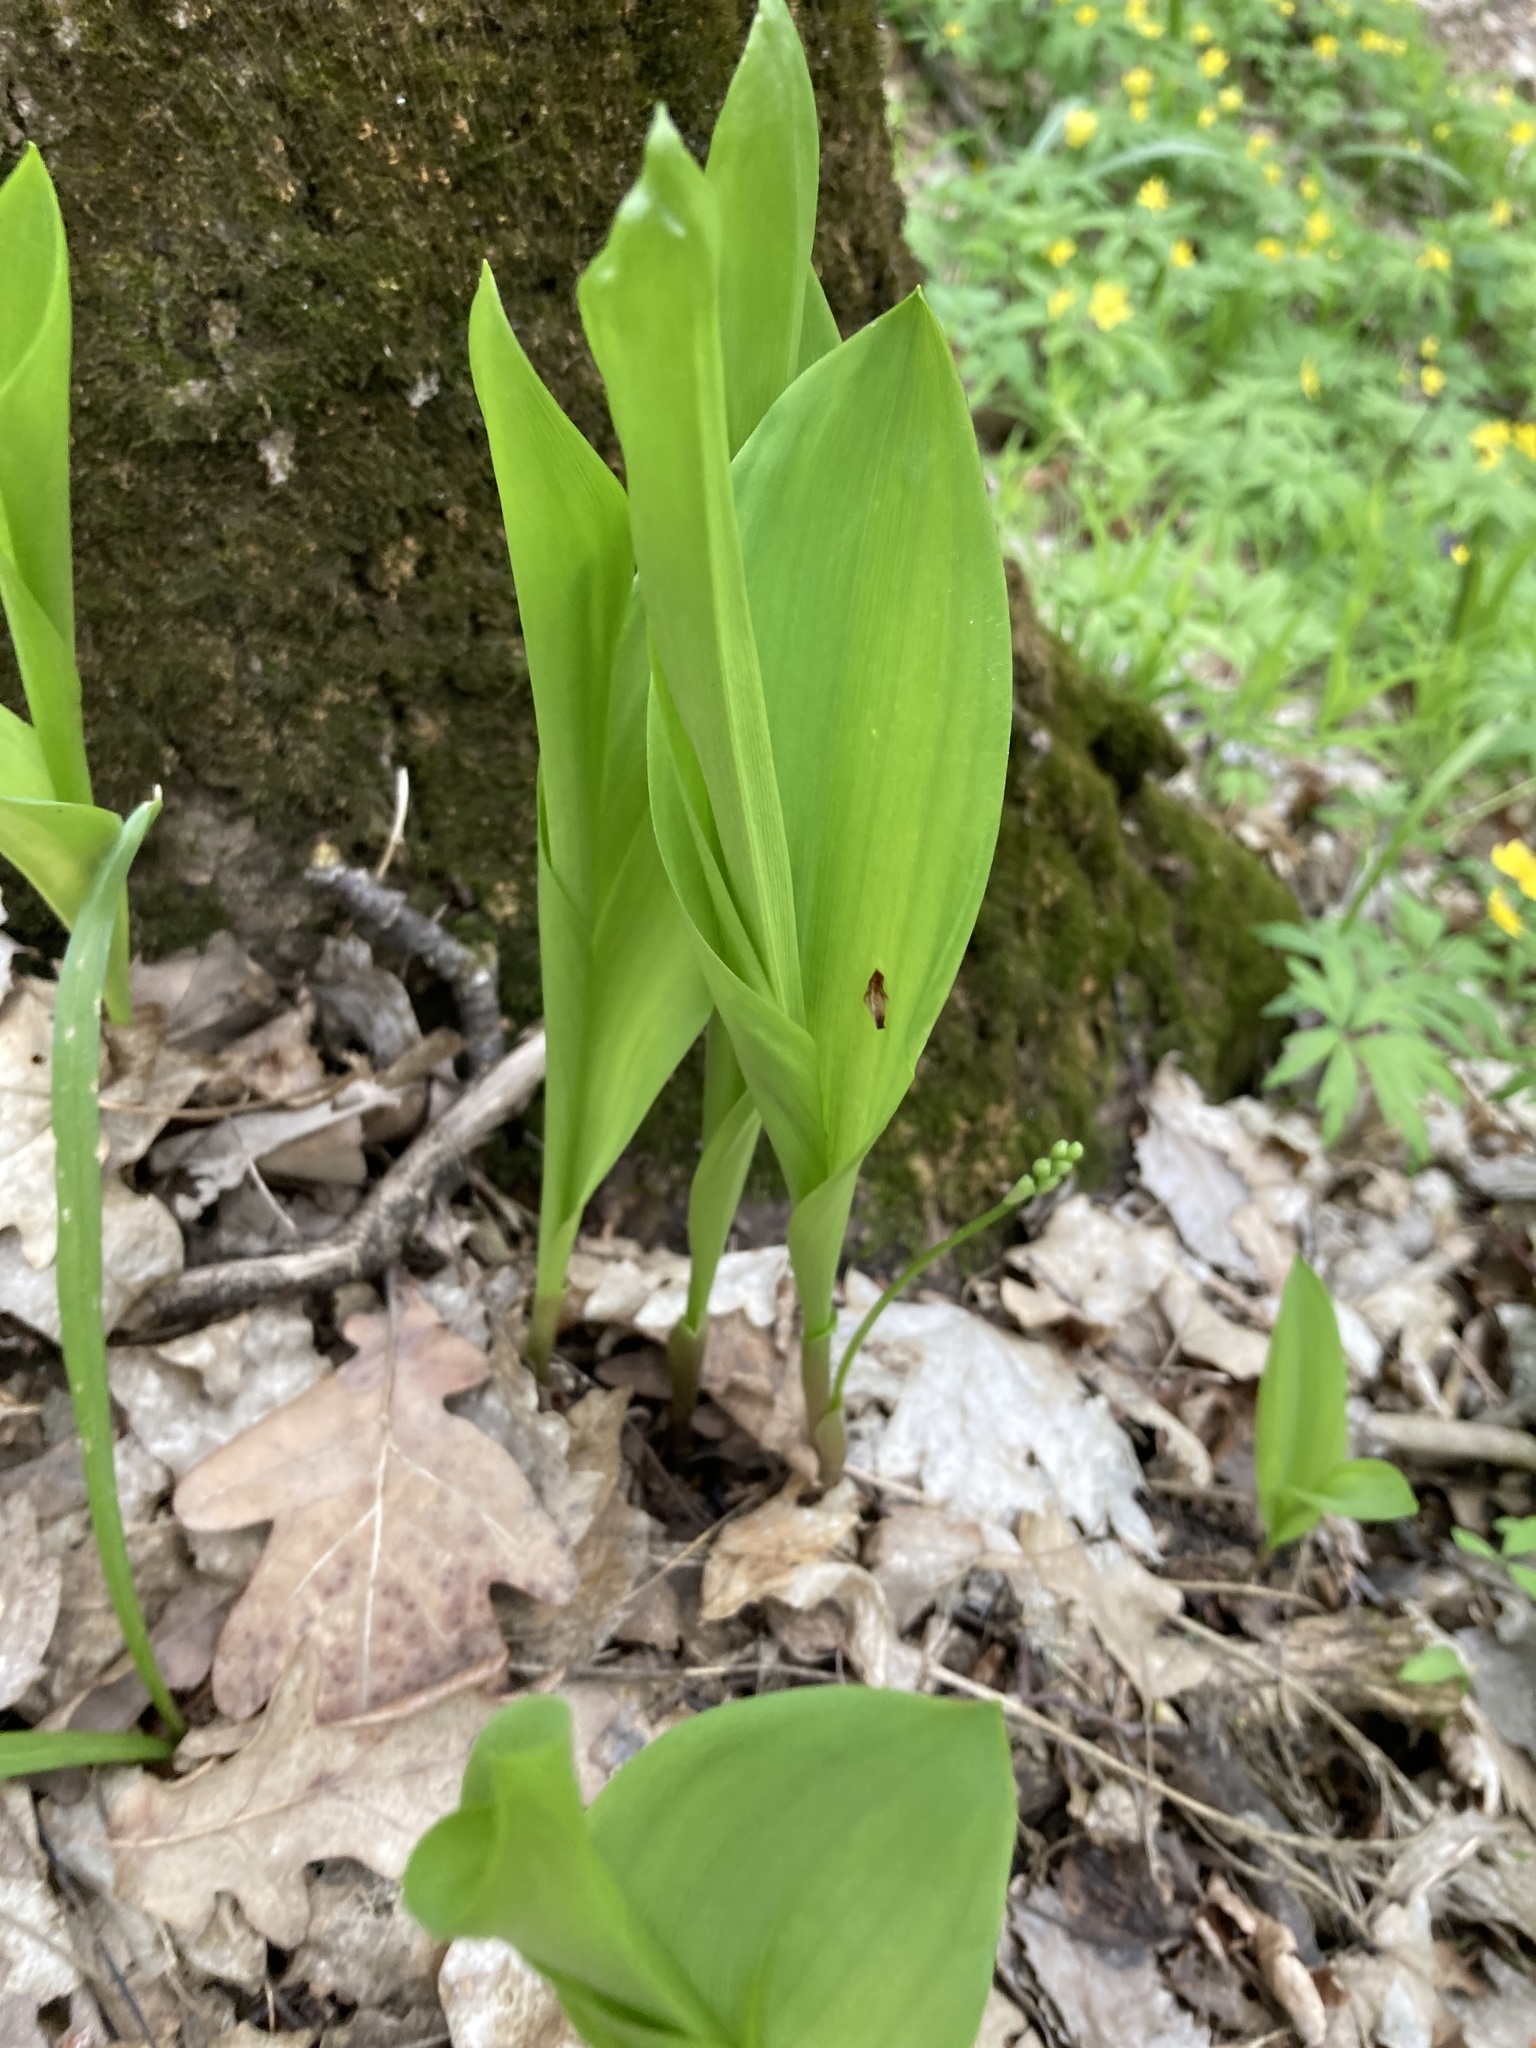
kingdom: Plantae
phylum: Tracheophyta
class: Liliopsida
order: Asparagales
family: Asparagaceae
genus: Convallaria
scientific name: Convallaria majalis
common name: Lily-of-the-valley
